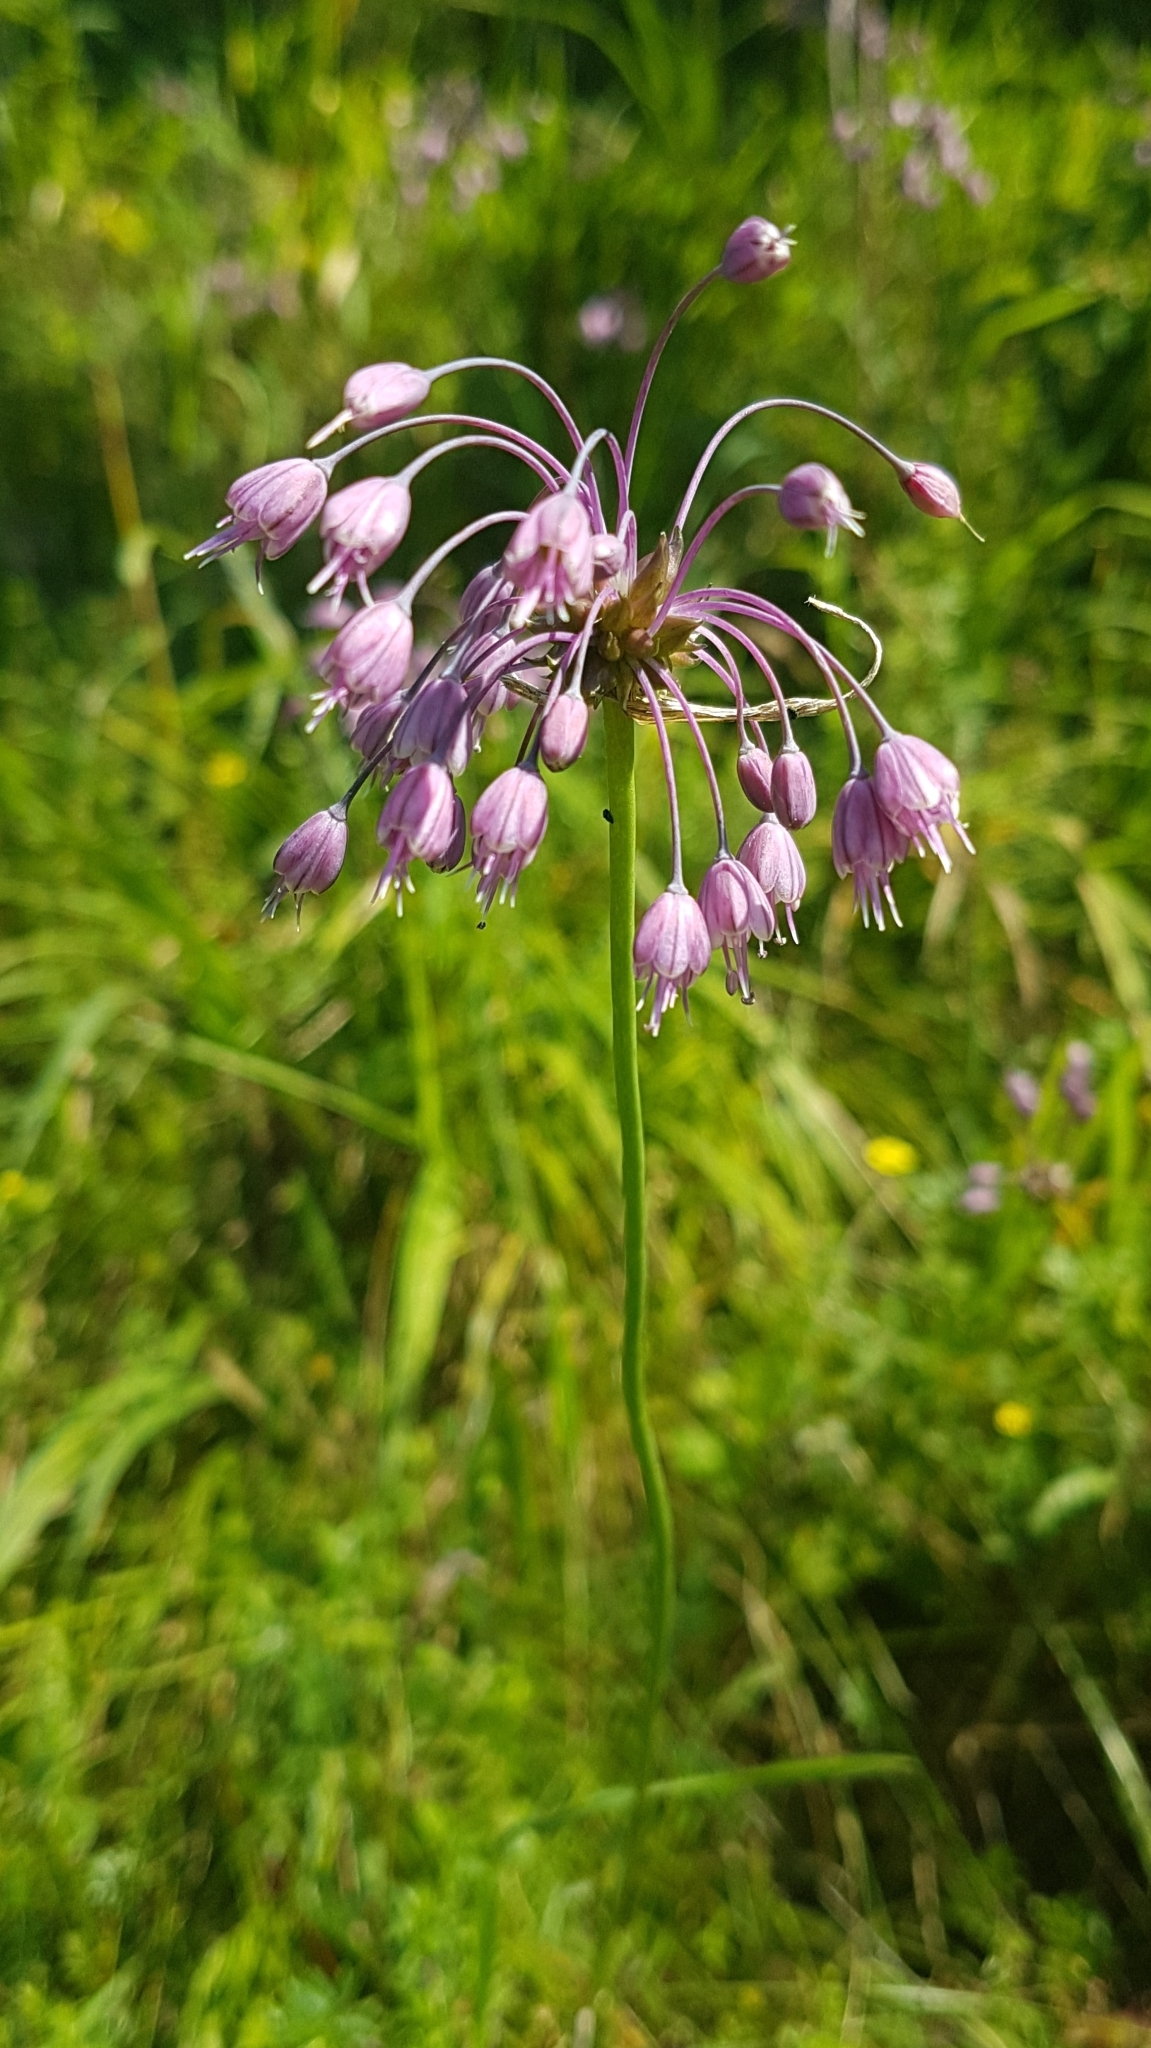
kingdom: Plantae
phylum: Tracheophyta
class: Liliopsida
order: Asparagales
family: Amaryllidaceae
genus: Allium
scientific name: Allium carinatum
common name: Keeled garlic
